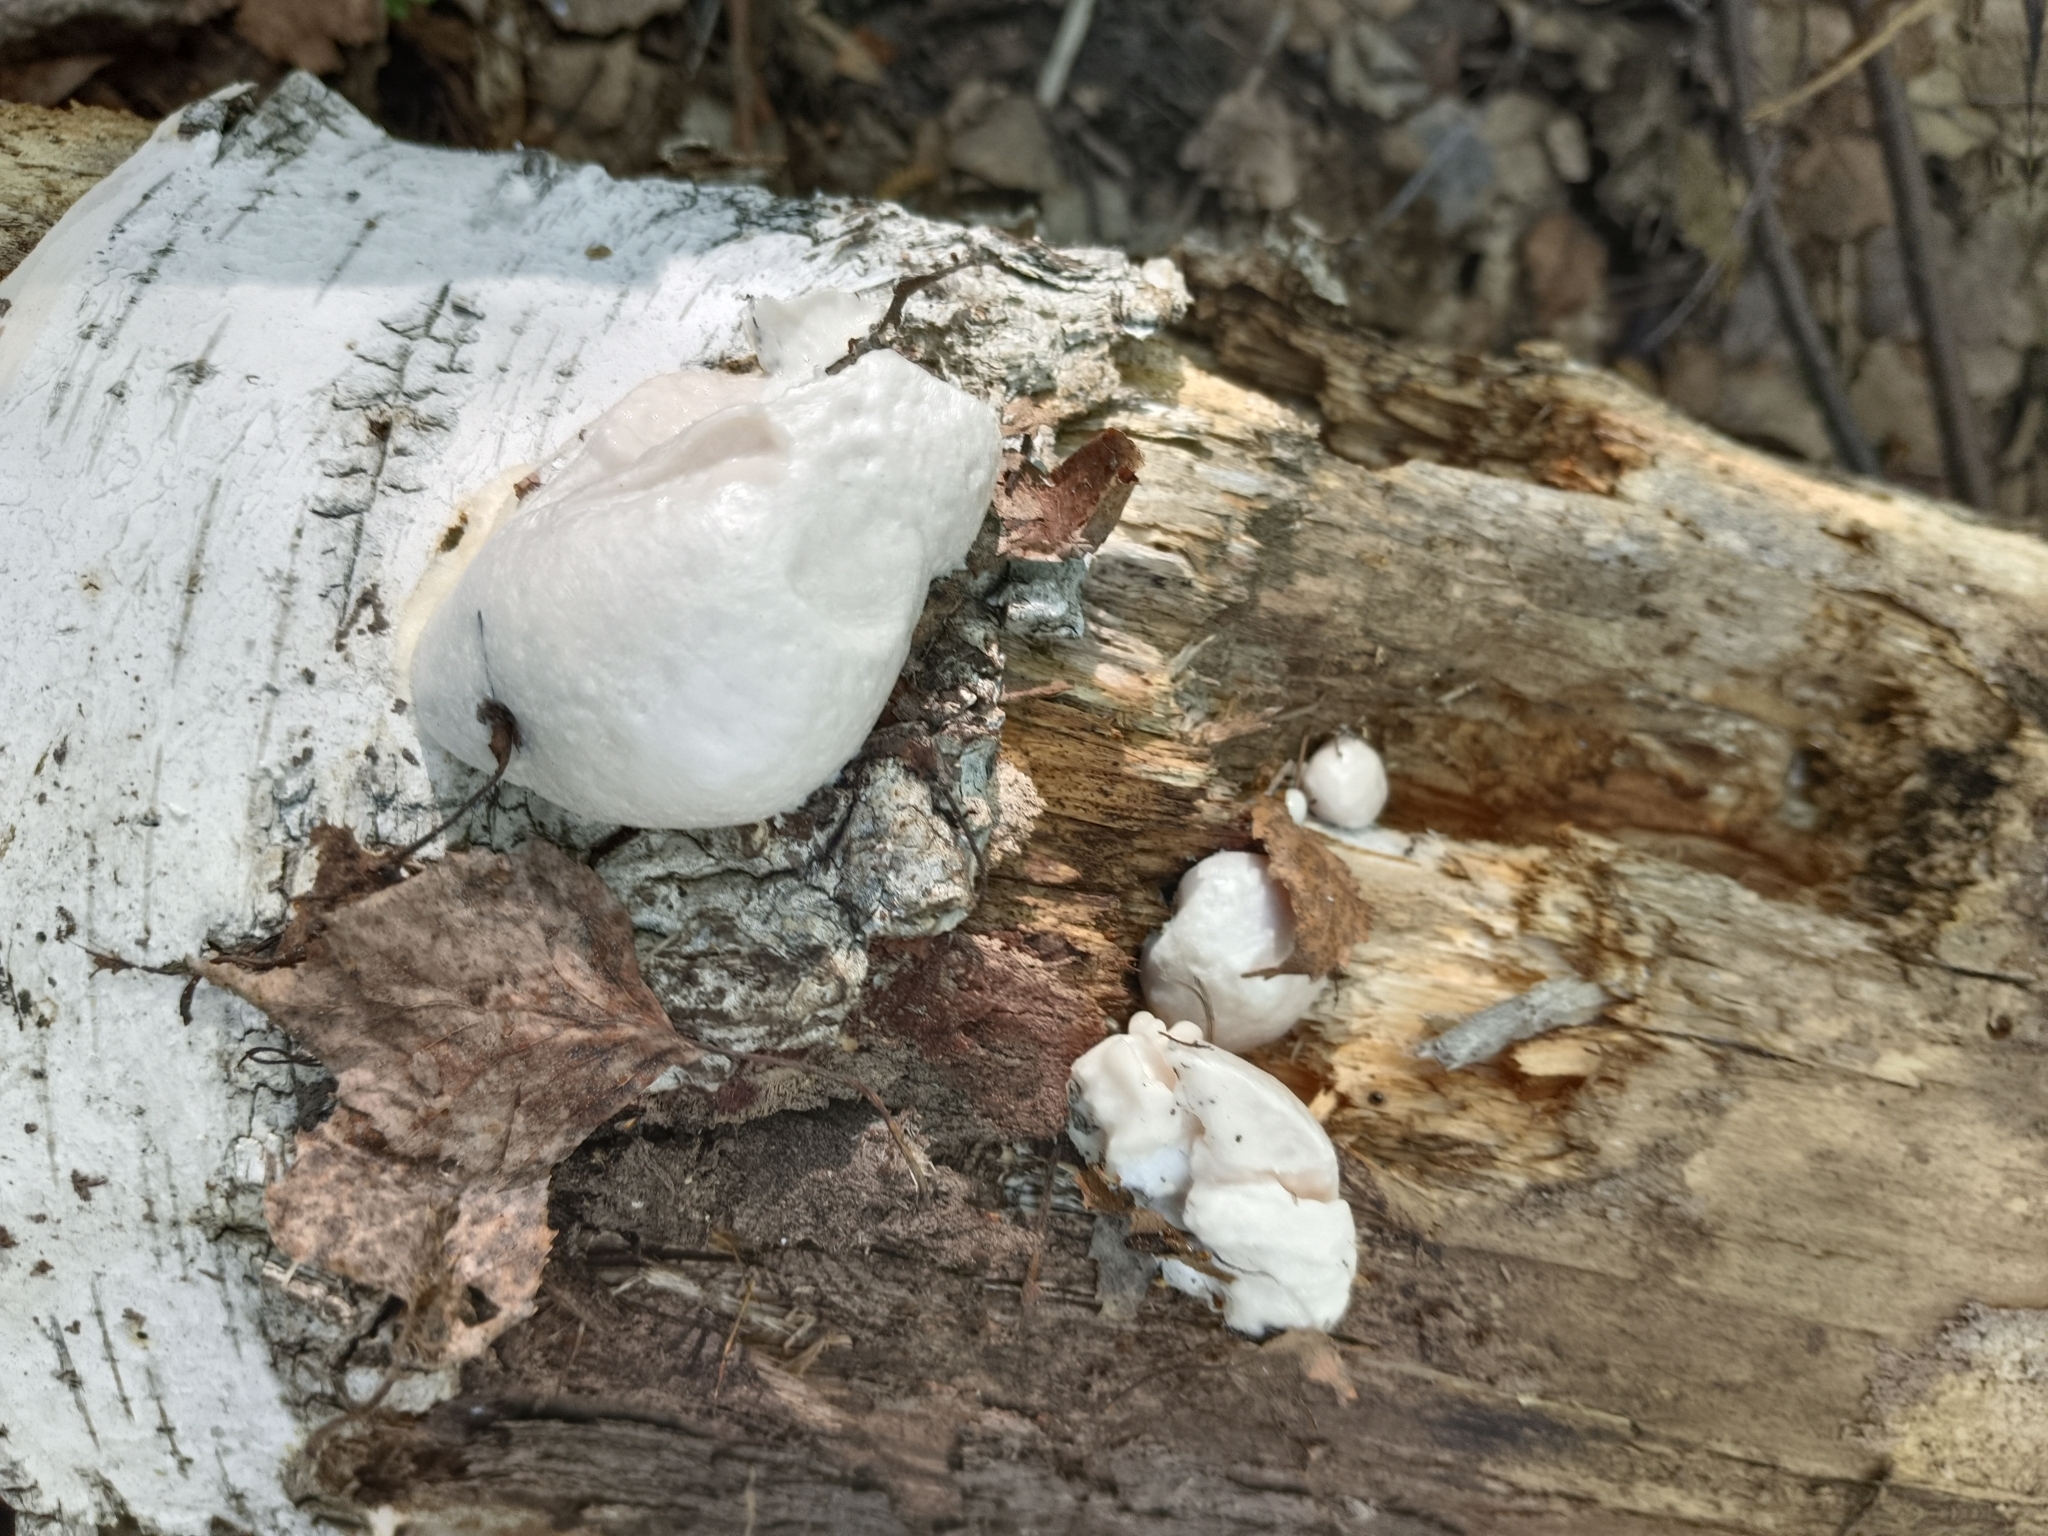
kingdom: Protozoa
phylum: Mycetozoa
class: Myxomycetes
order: Cribrariales
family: Tubiferaceae
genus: Reticularia
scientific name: Reticularia lycoperdon
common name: False puffball
